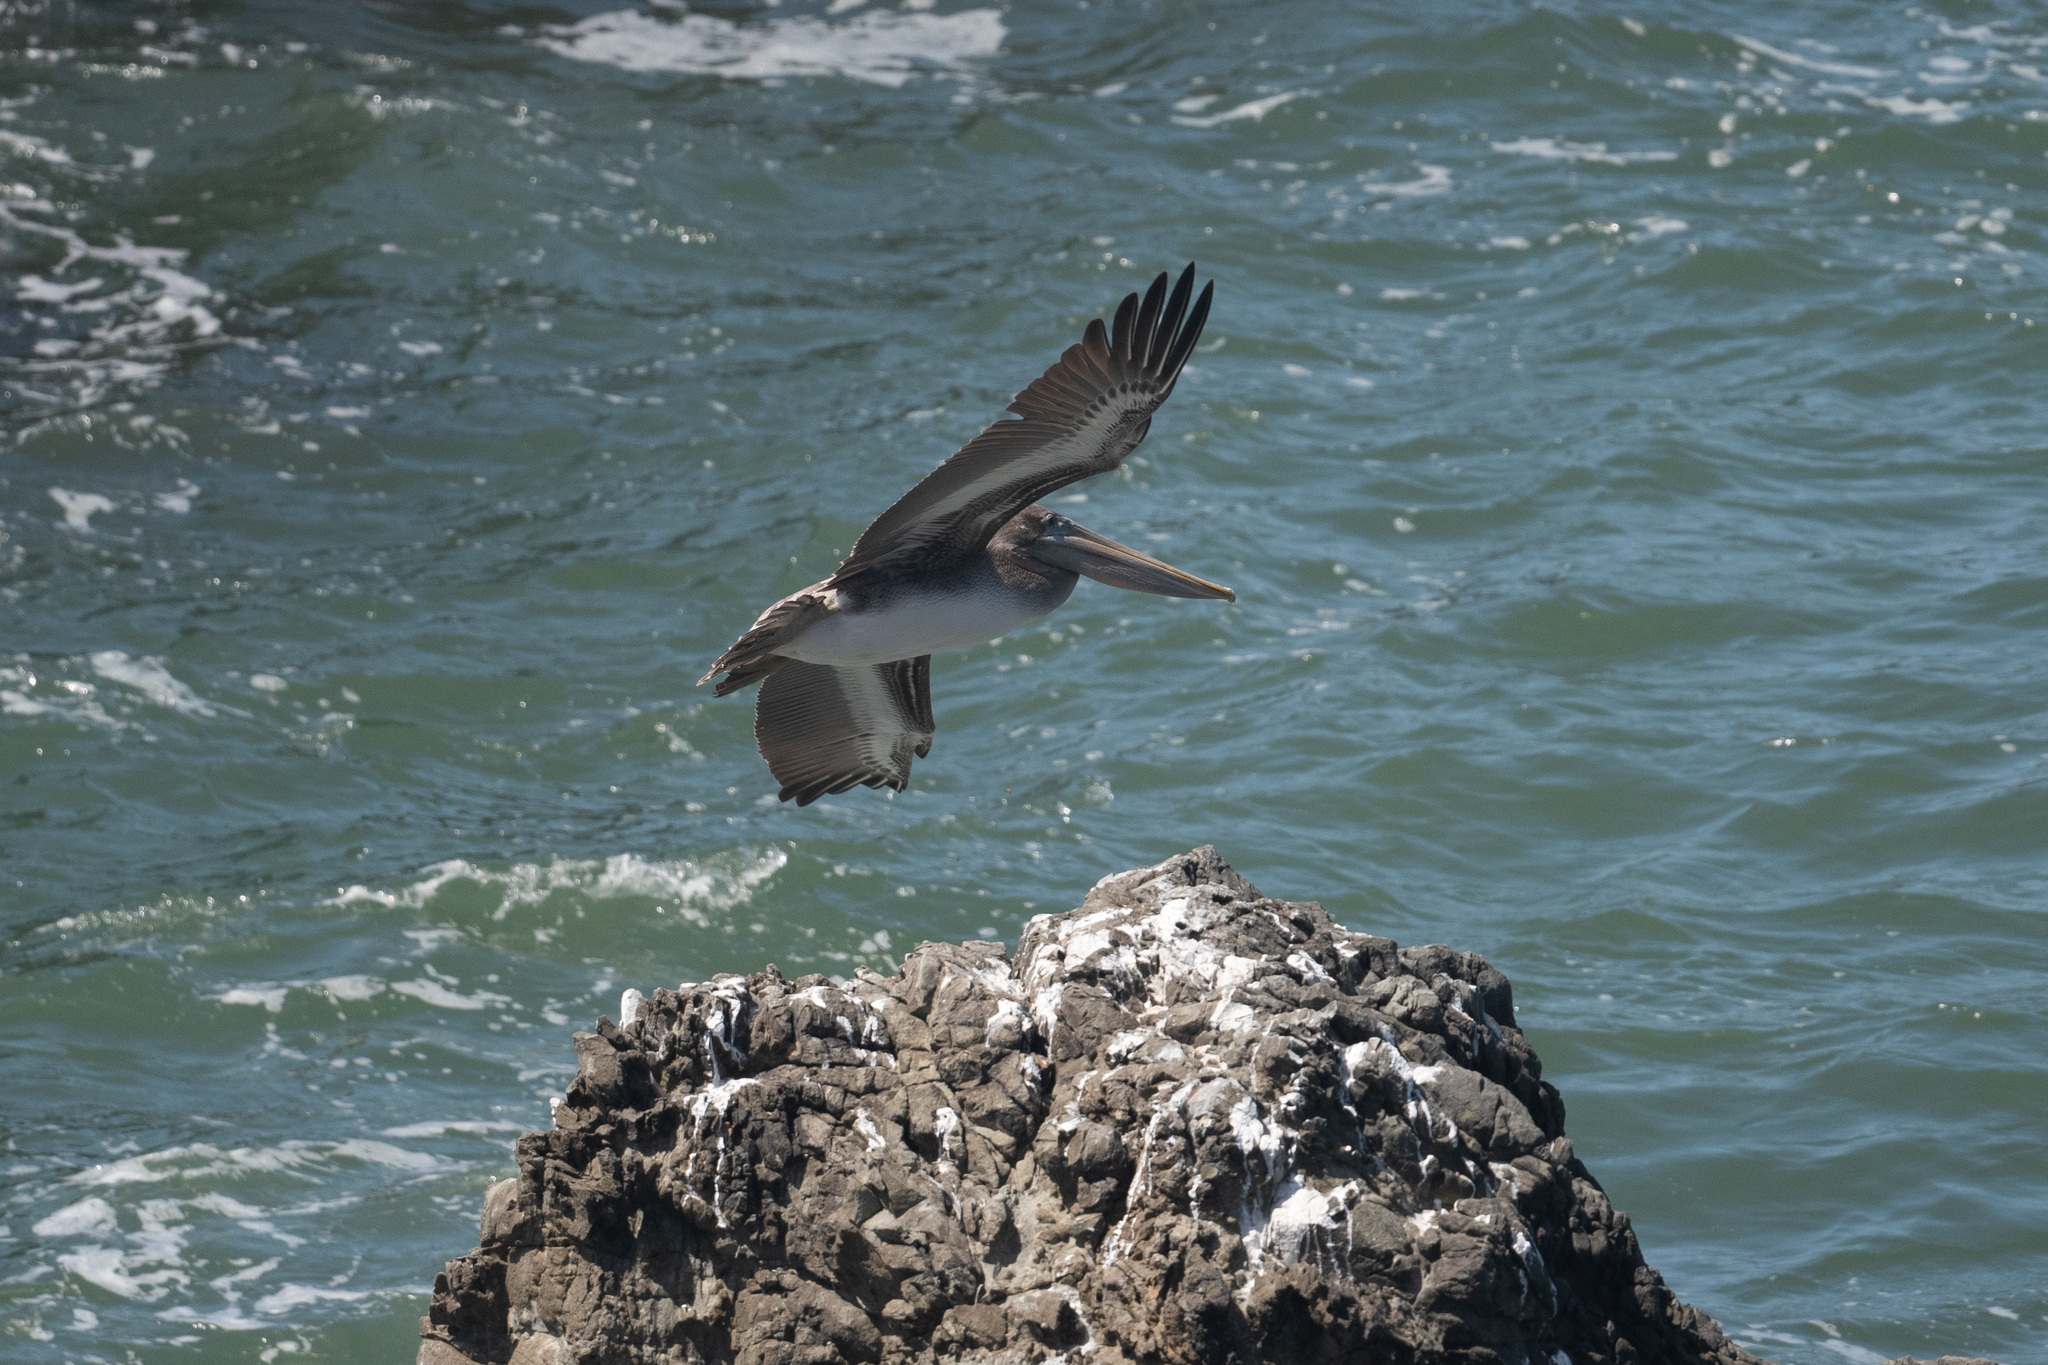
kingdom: Animalia
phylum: Chordata
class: Aves
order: Pelecaniformes
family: Pelecanidae
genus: Pelecanus
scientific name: Pelecanus occidentalis
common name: Brown pelican
